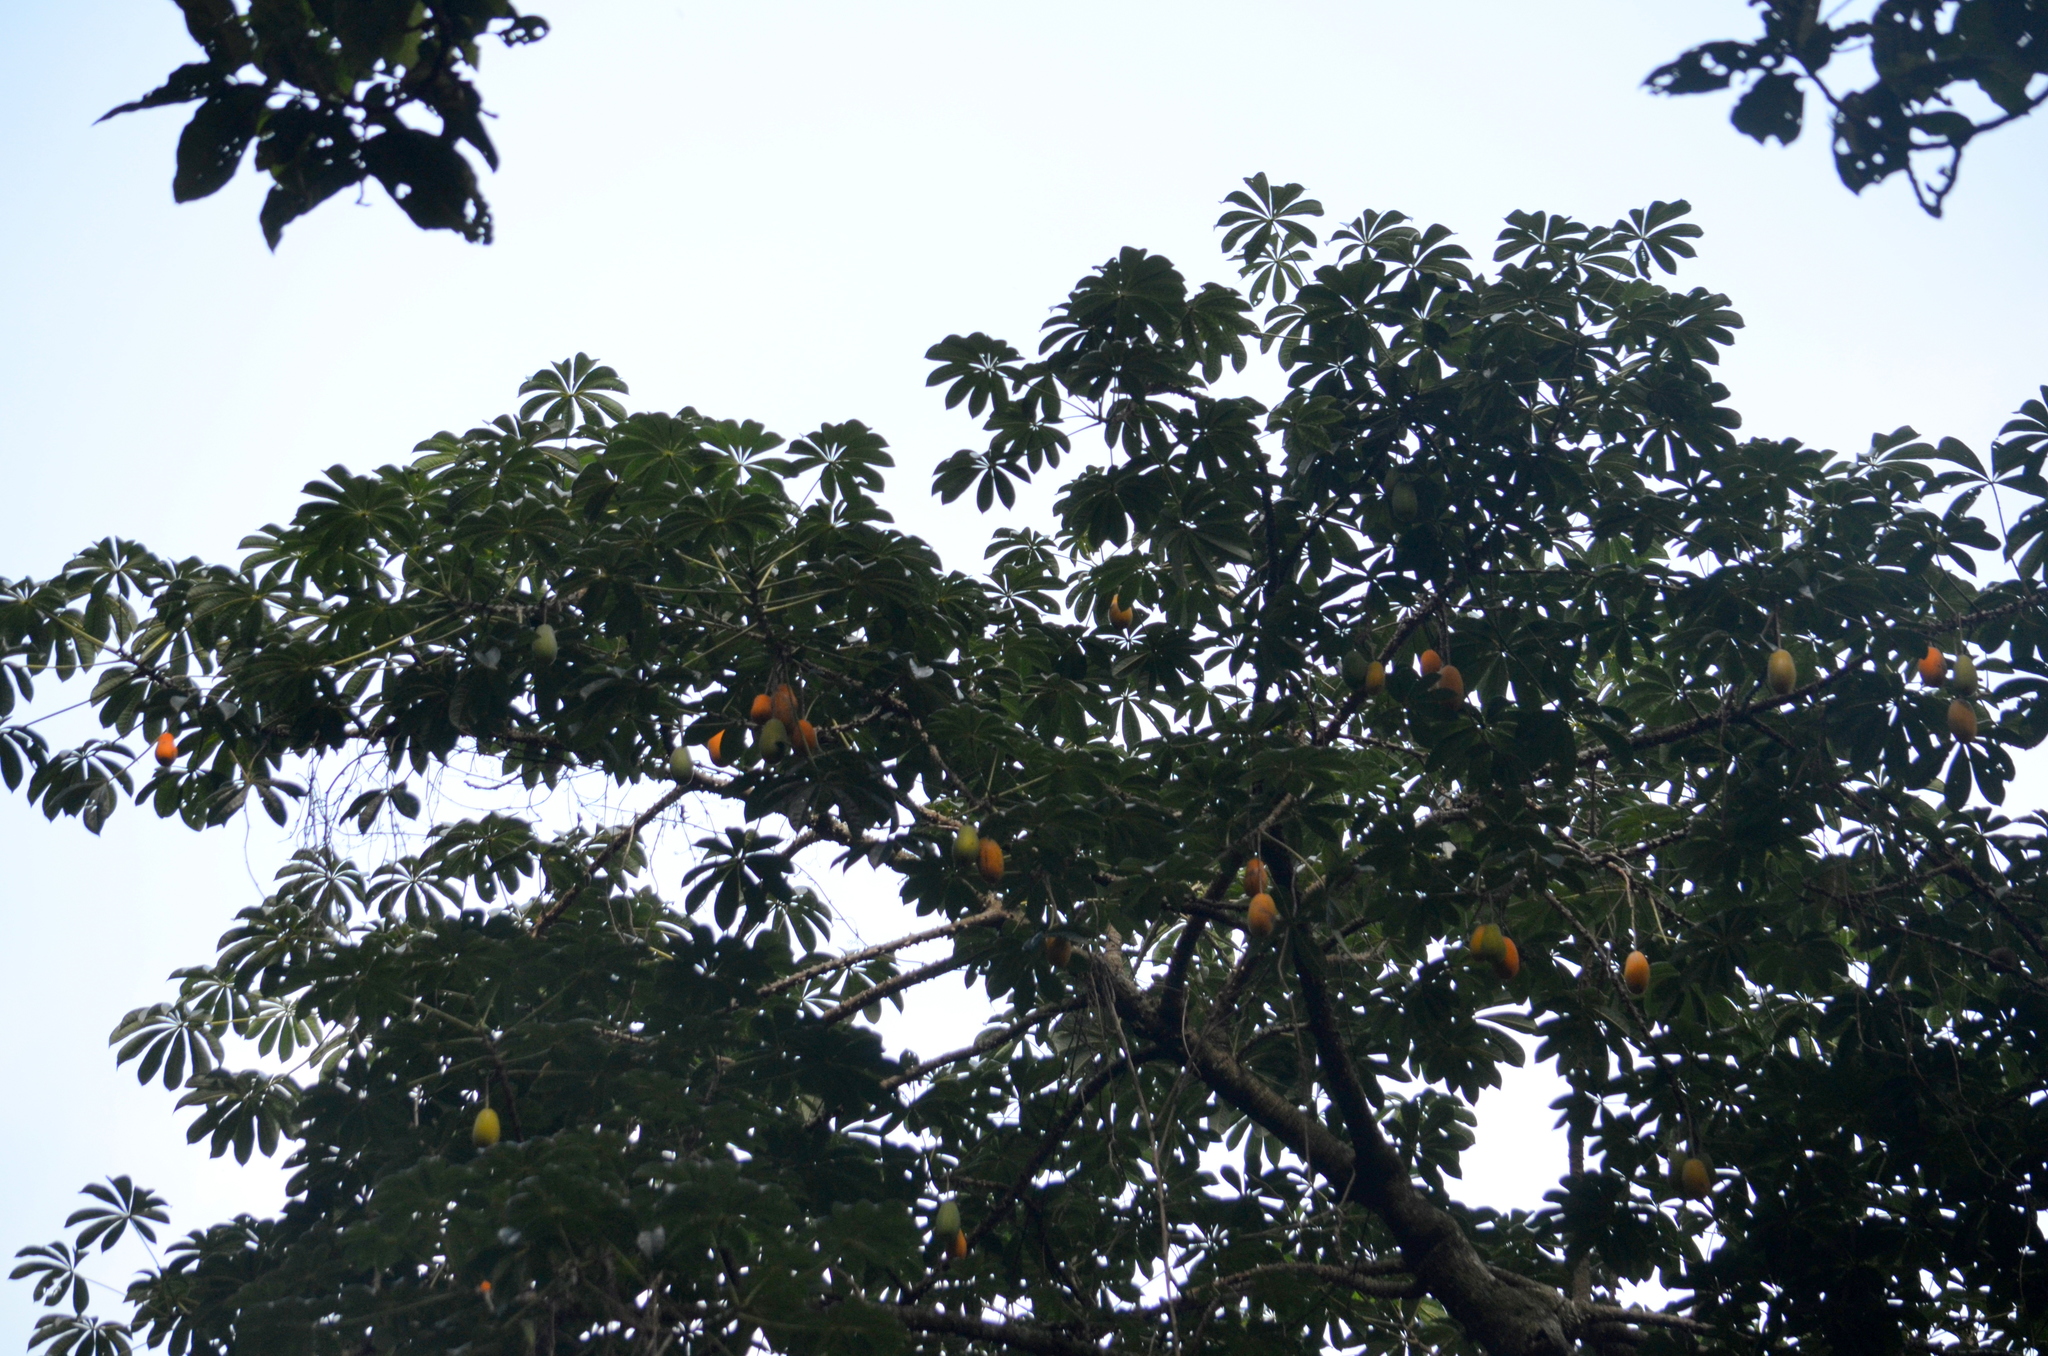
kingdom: Plantae
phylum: Tracheophyta
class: Magnoliopsida
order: Brassicales
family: Caricaceae
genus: Jacaratia
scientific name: Jacaratia spinosa
